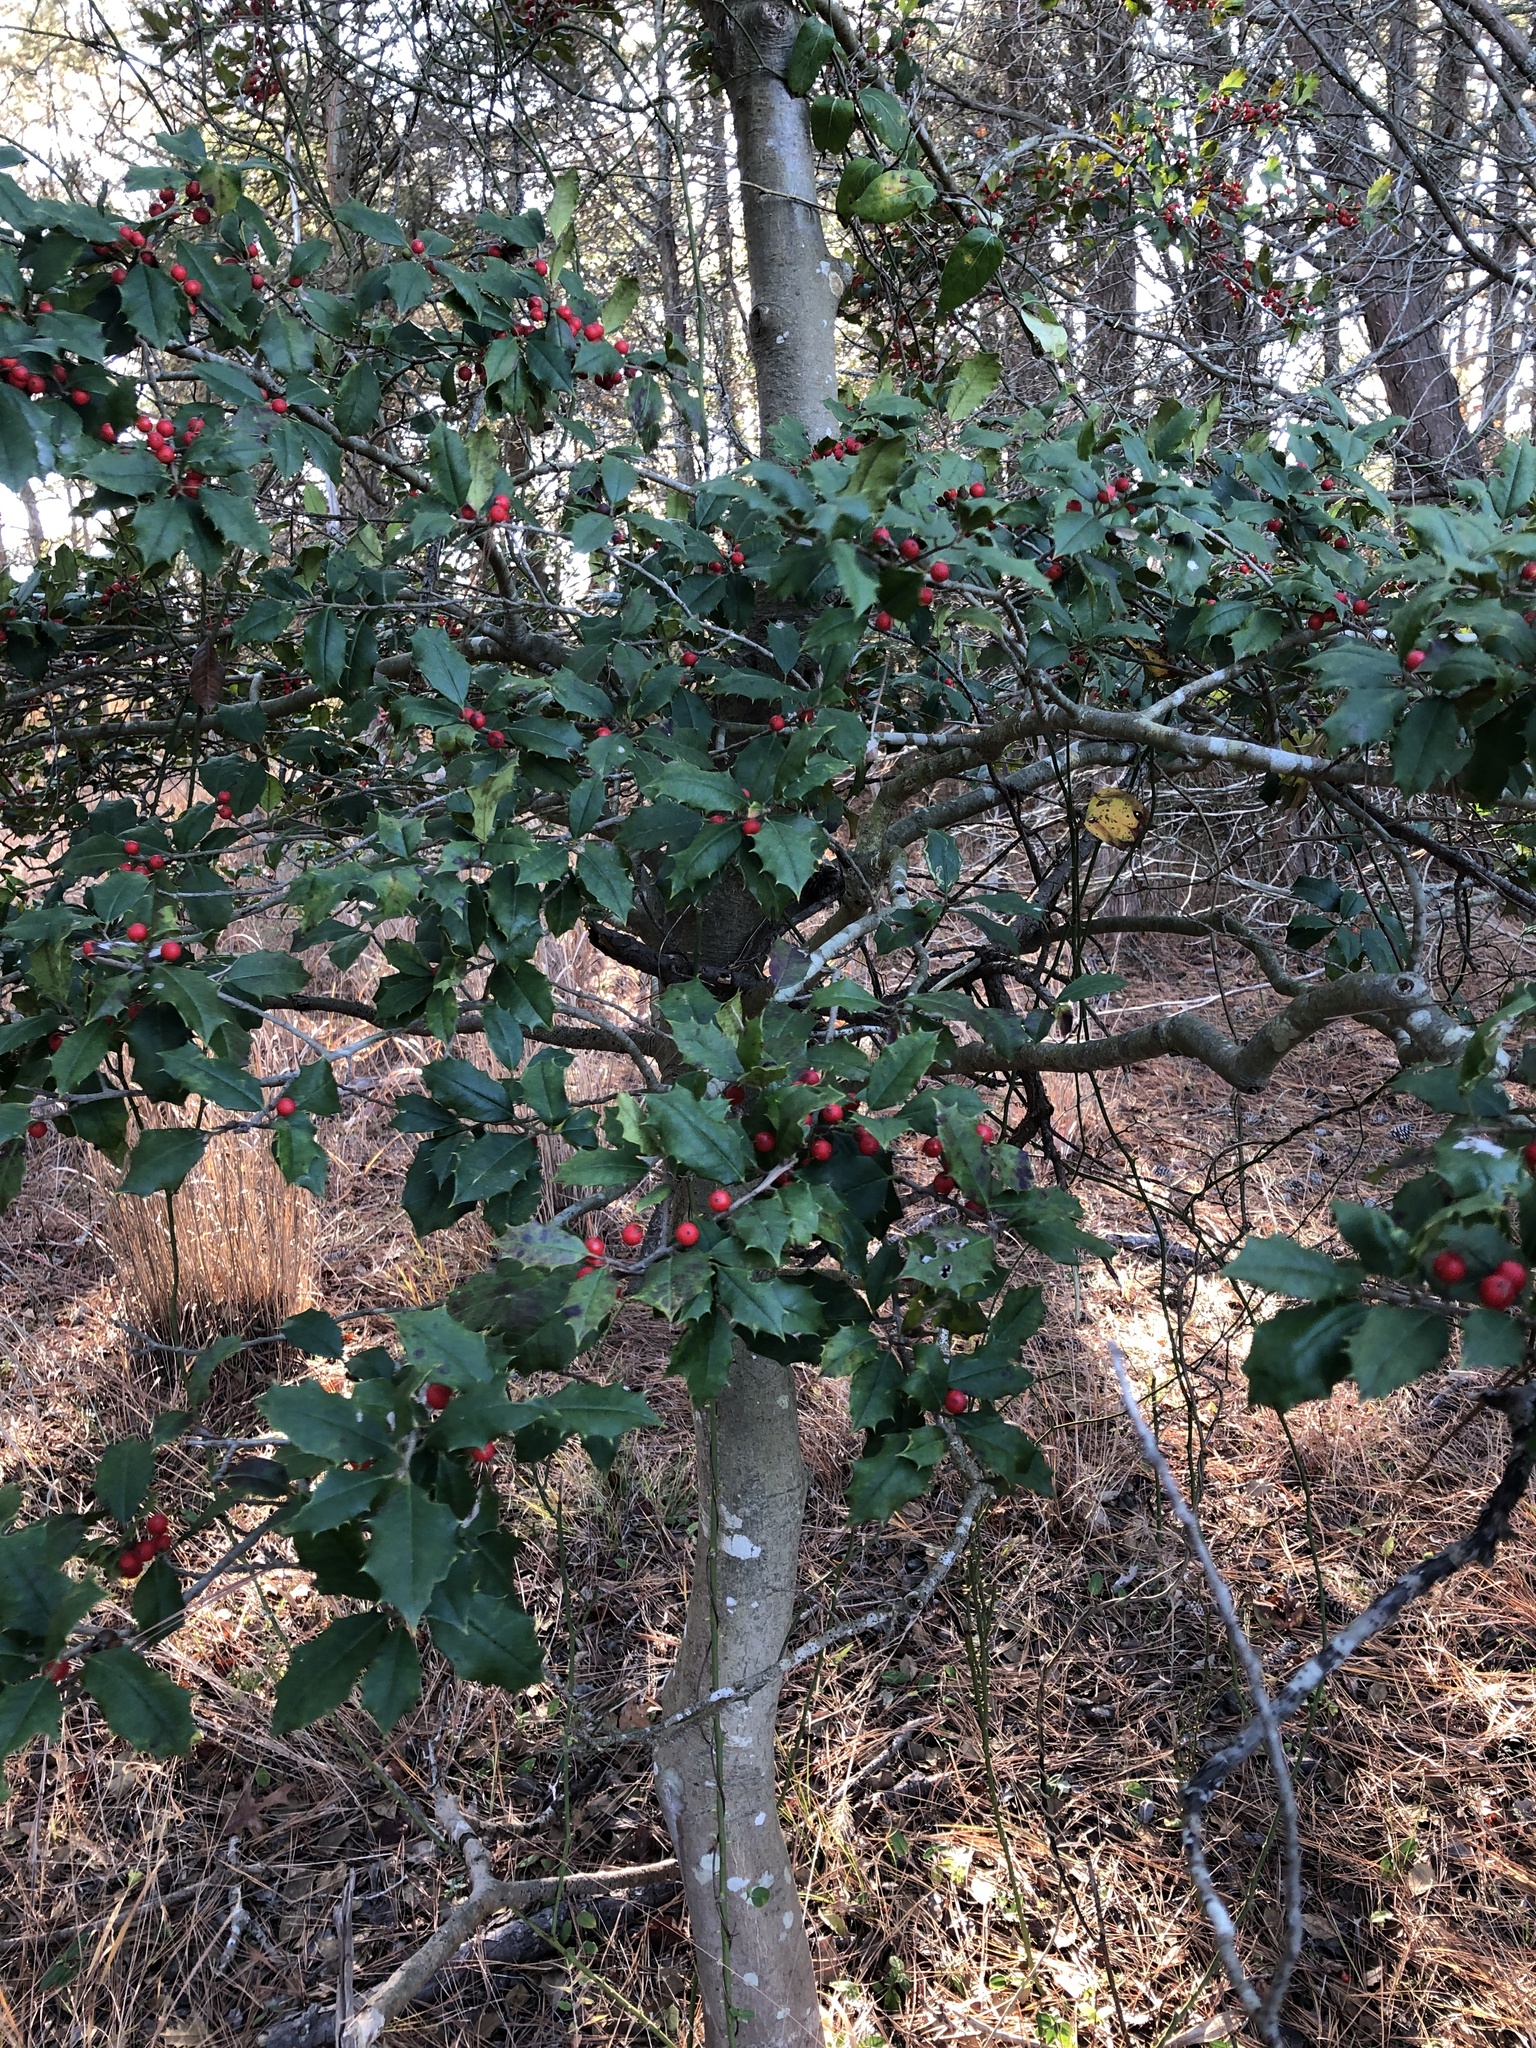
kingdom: Plantae
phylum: Tracheophyta
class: Magnoliopsida
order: Aquifoliales
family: Aquifoliaceae
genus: Ilex
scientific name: Ilex opaca
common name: American holly
